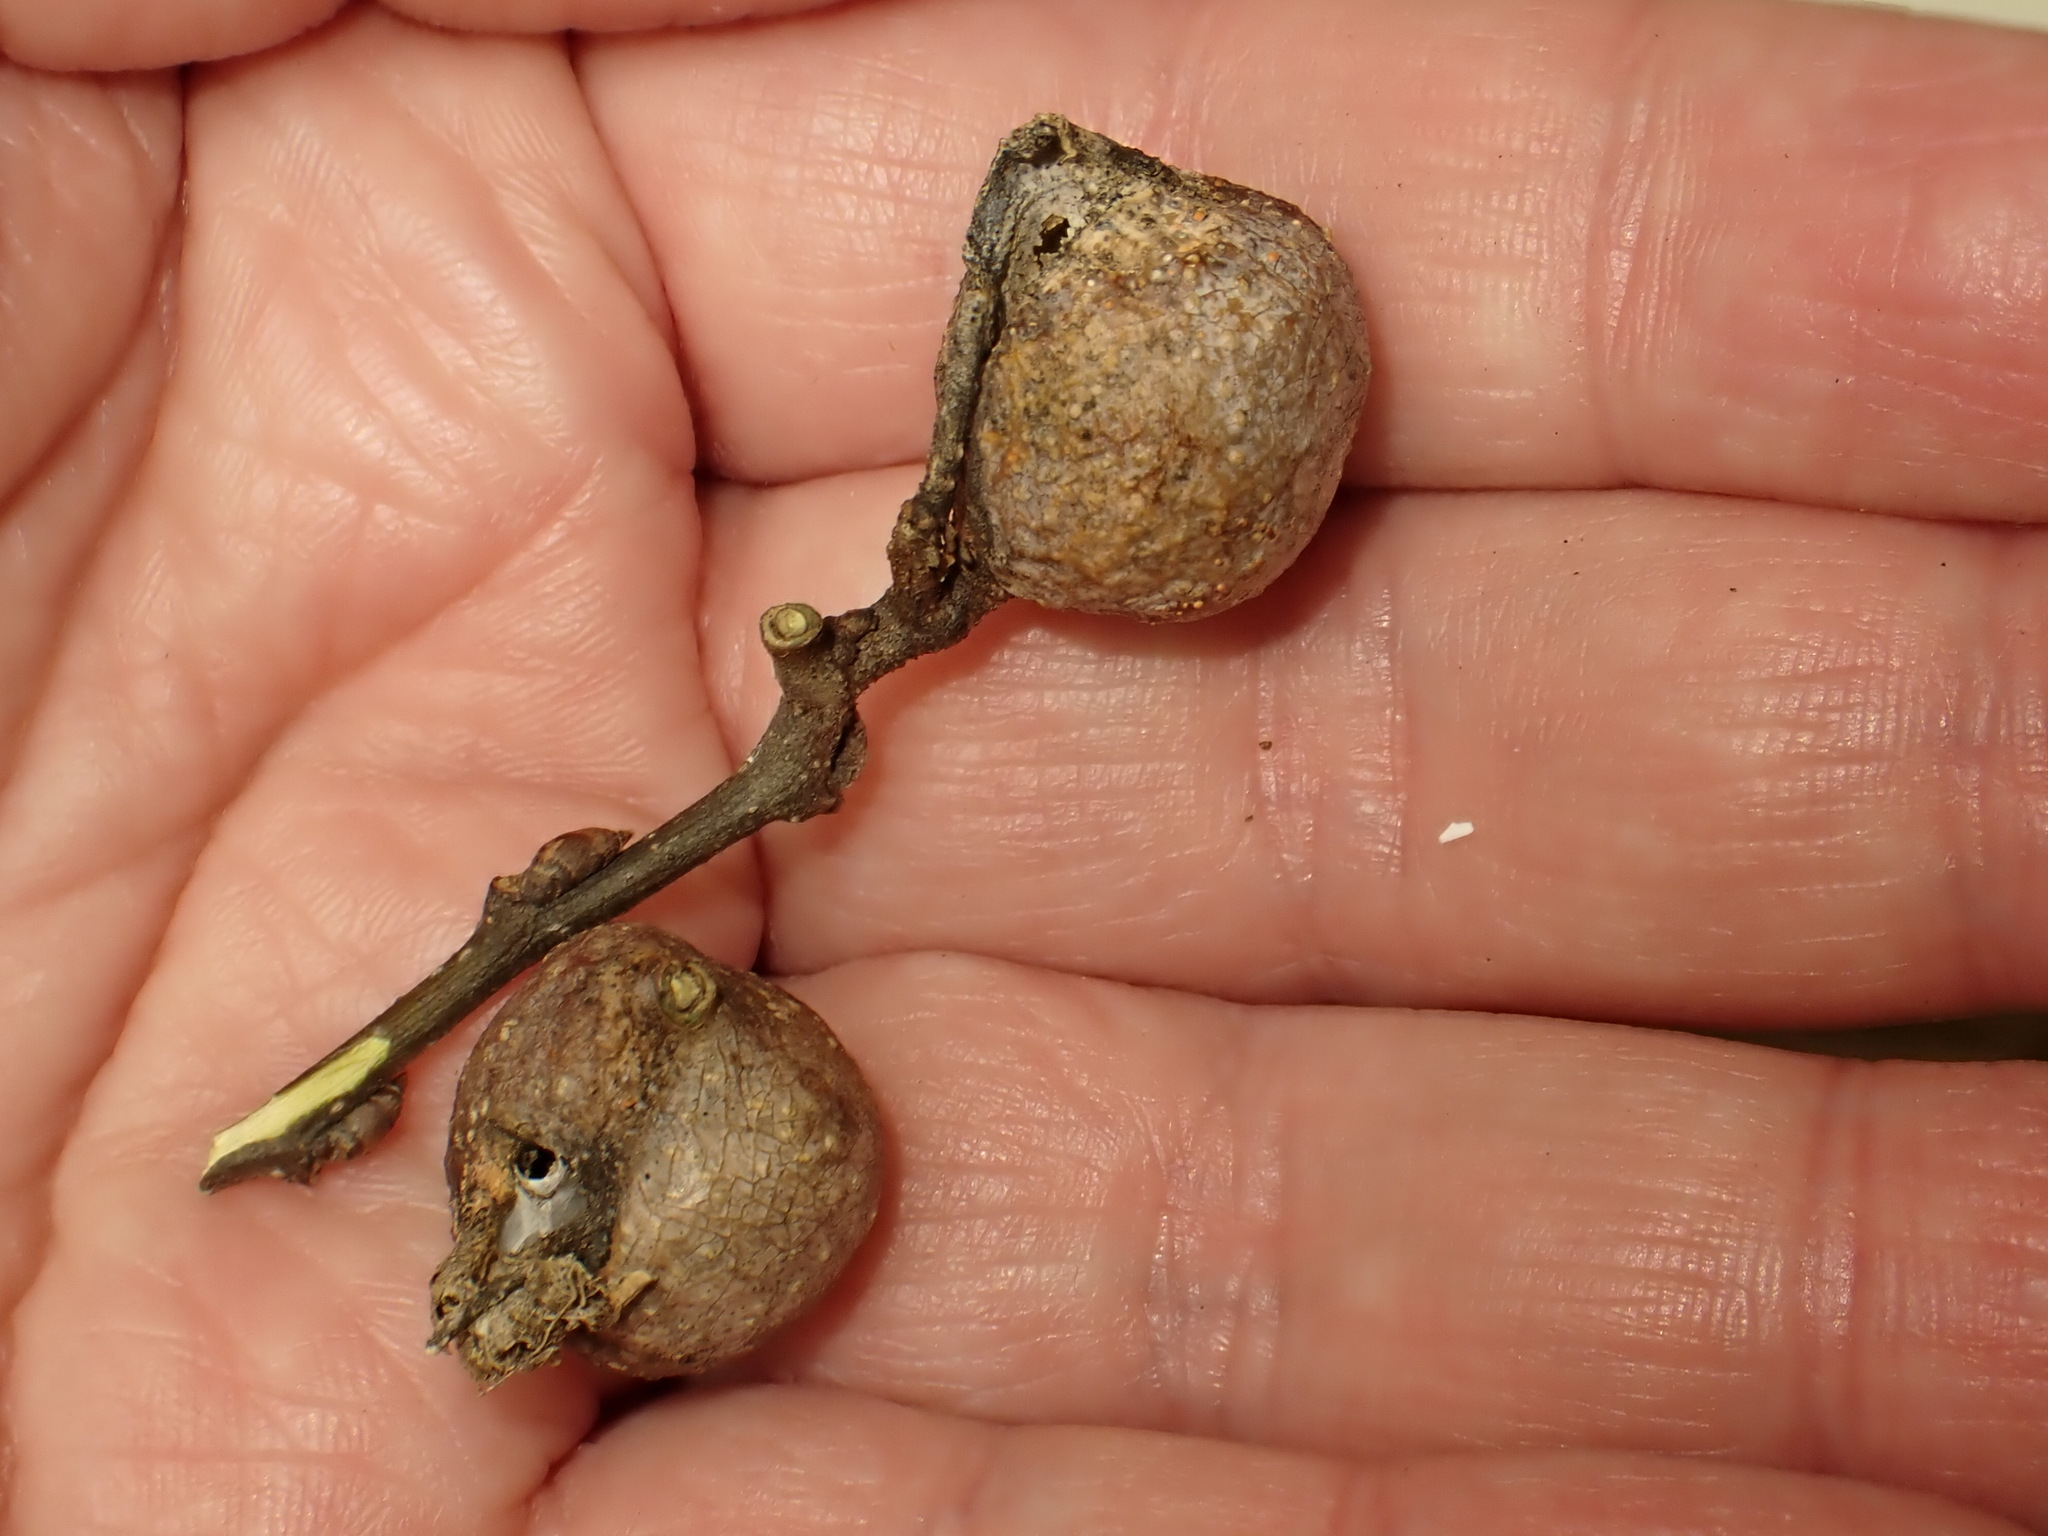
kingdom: Animalia
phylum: Arthropoda
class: Insecta
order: Hemiptera
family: Aphalaridae
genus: Pachypsylla
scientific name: Pachypsylla venusta
